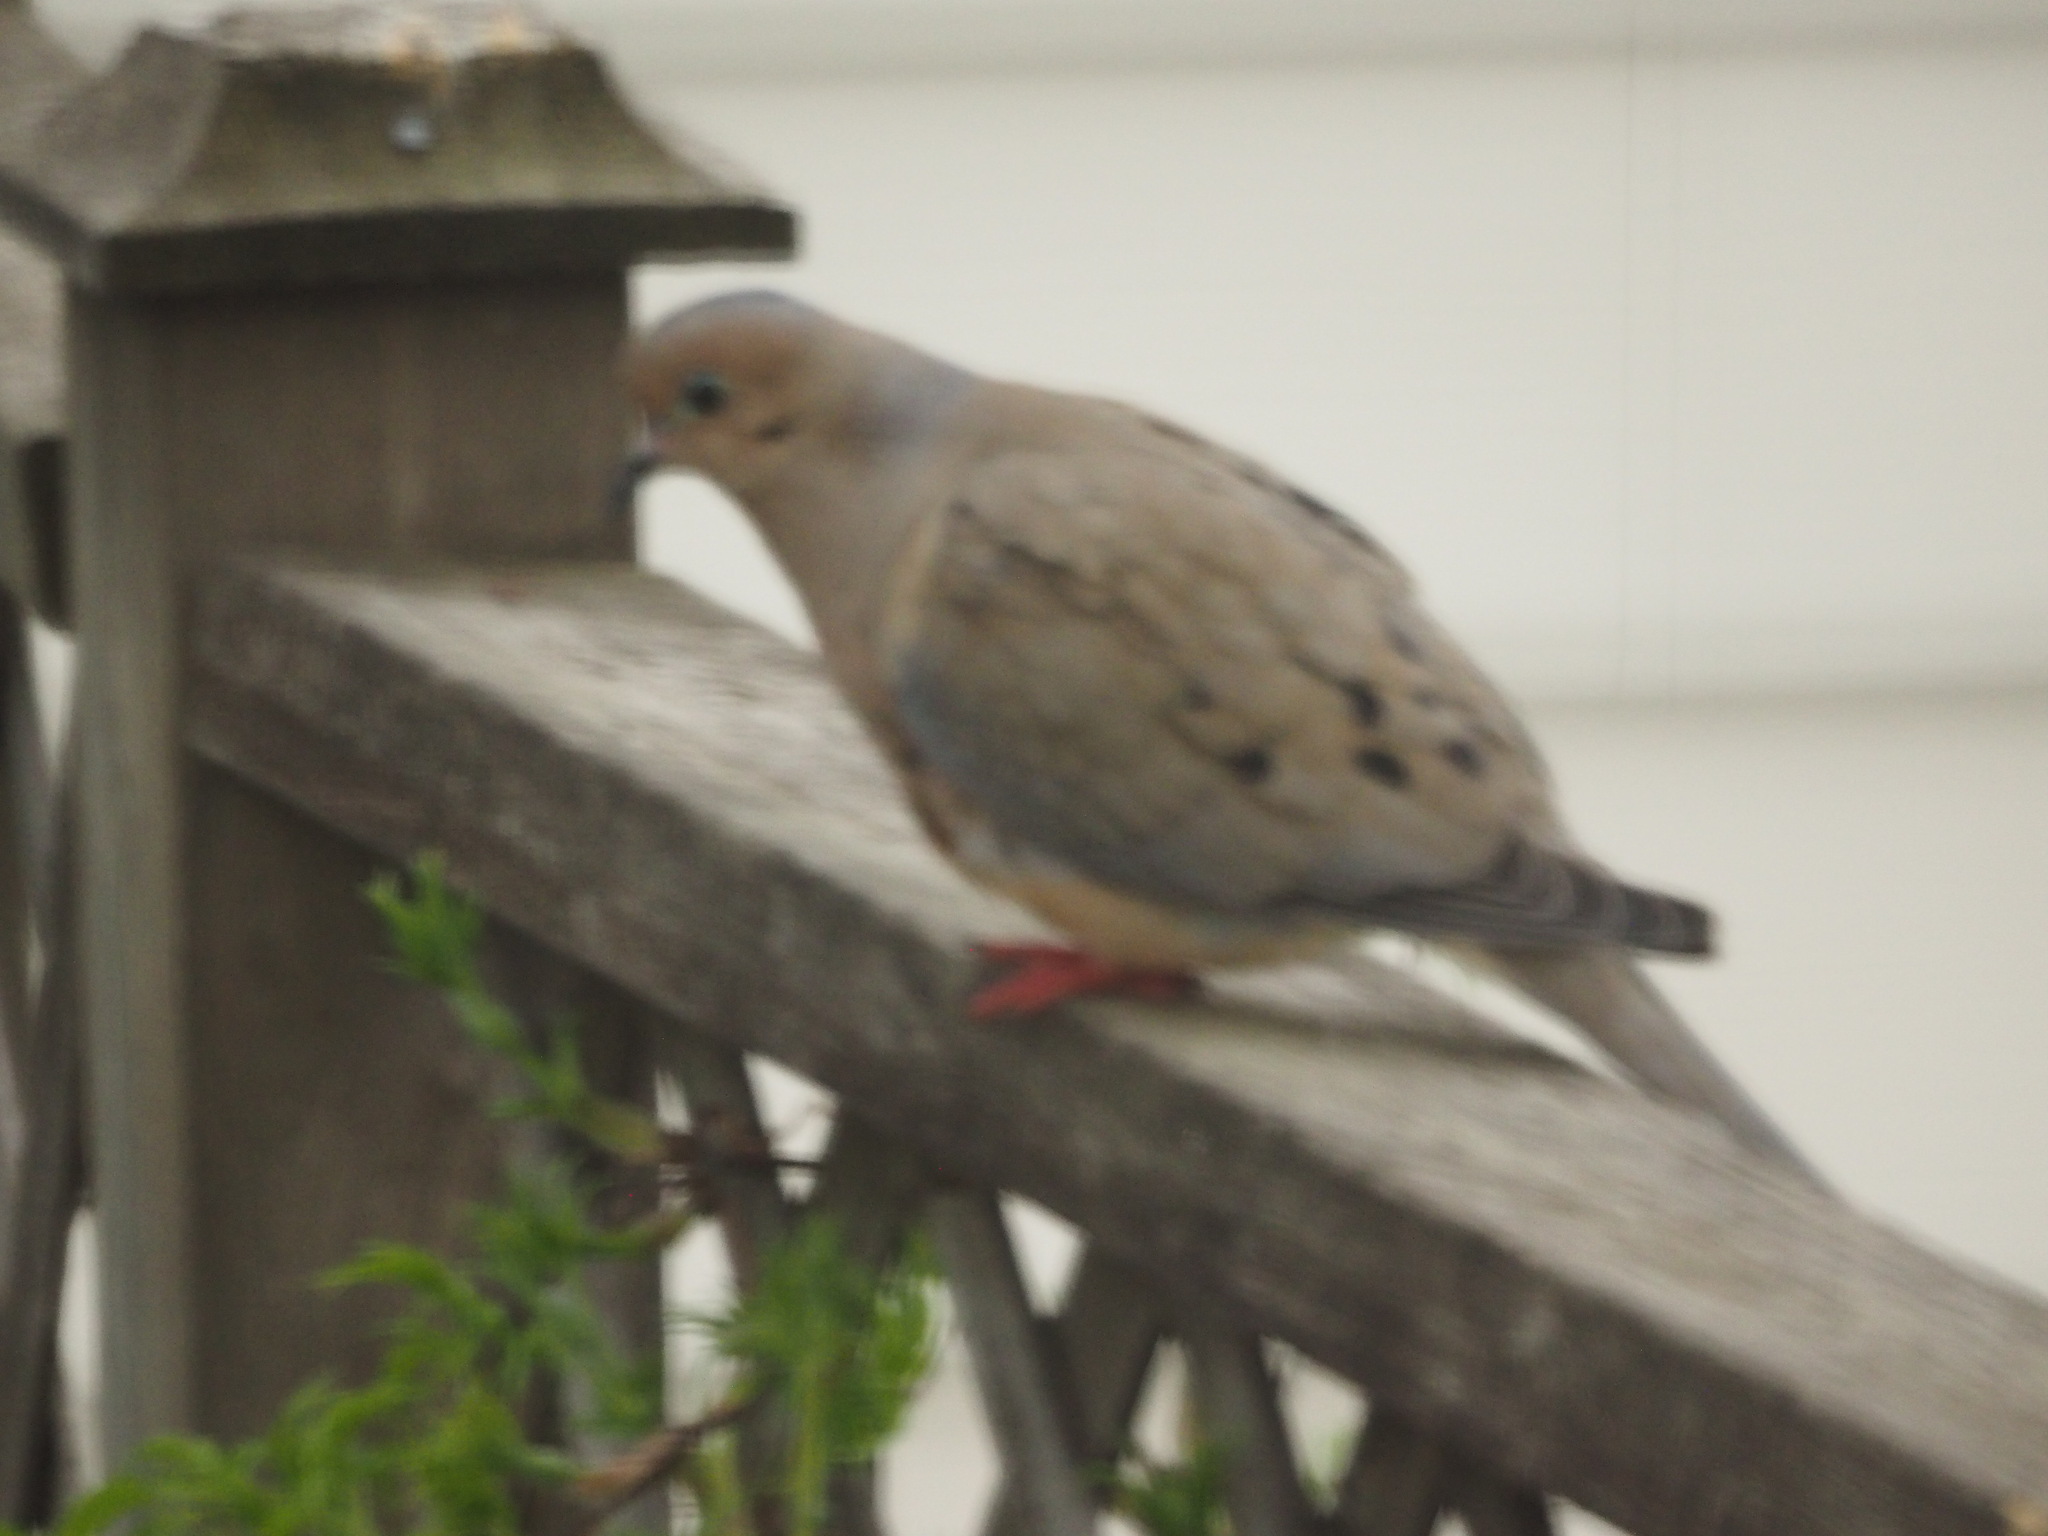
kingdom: Animalia
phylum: Chordata
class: Aves
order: Columbiformes
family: Columbidae
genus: Zenaida
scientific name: Zenaida macroura
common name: Mourning dove
